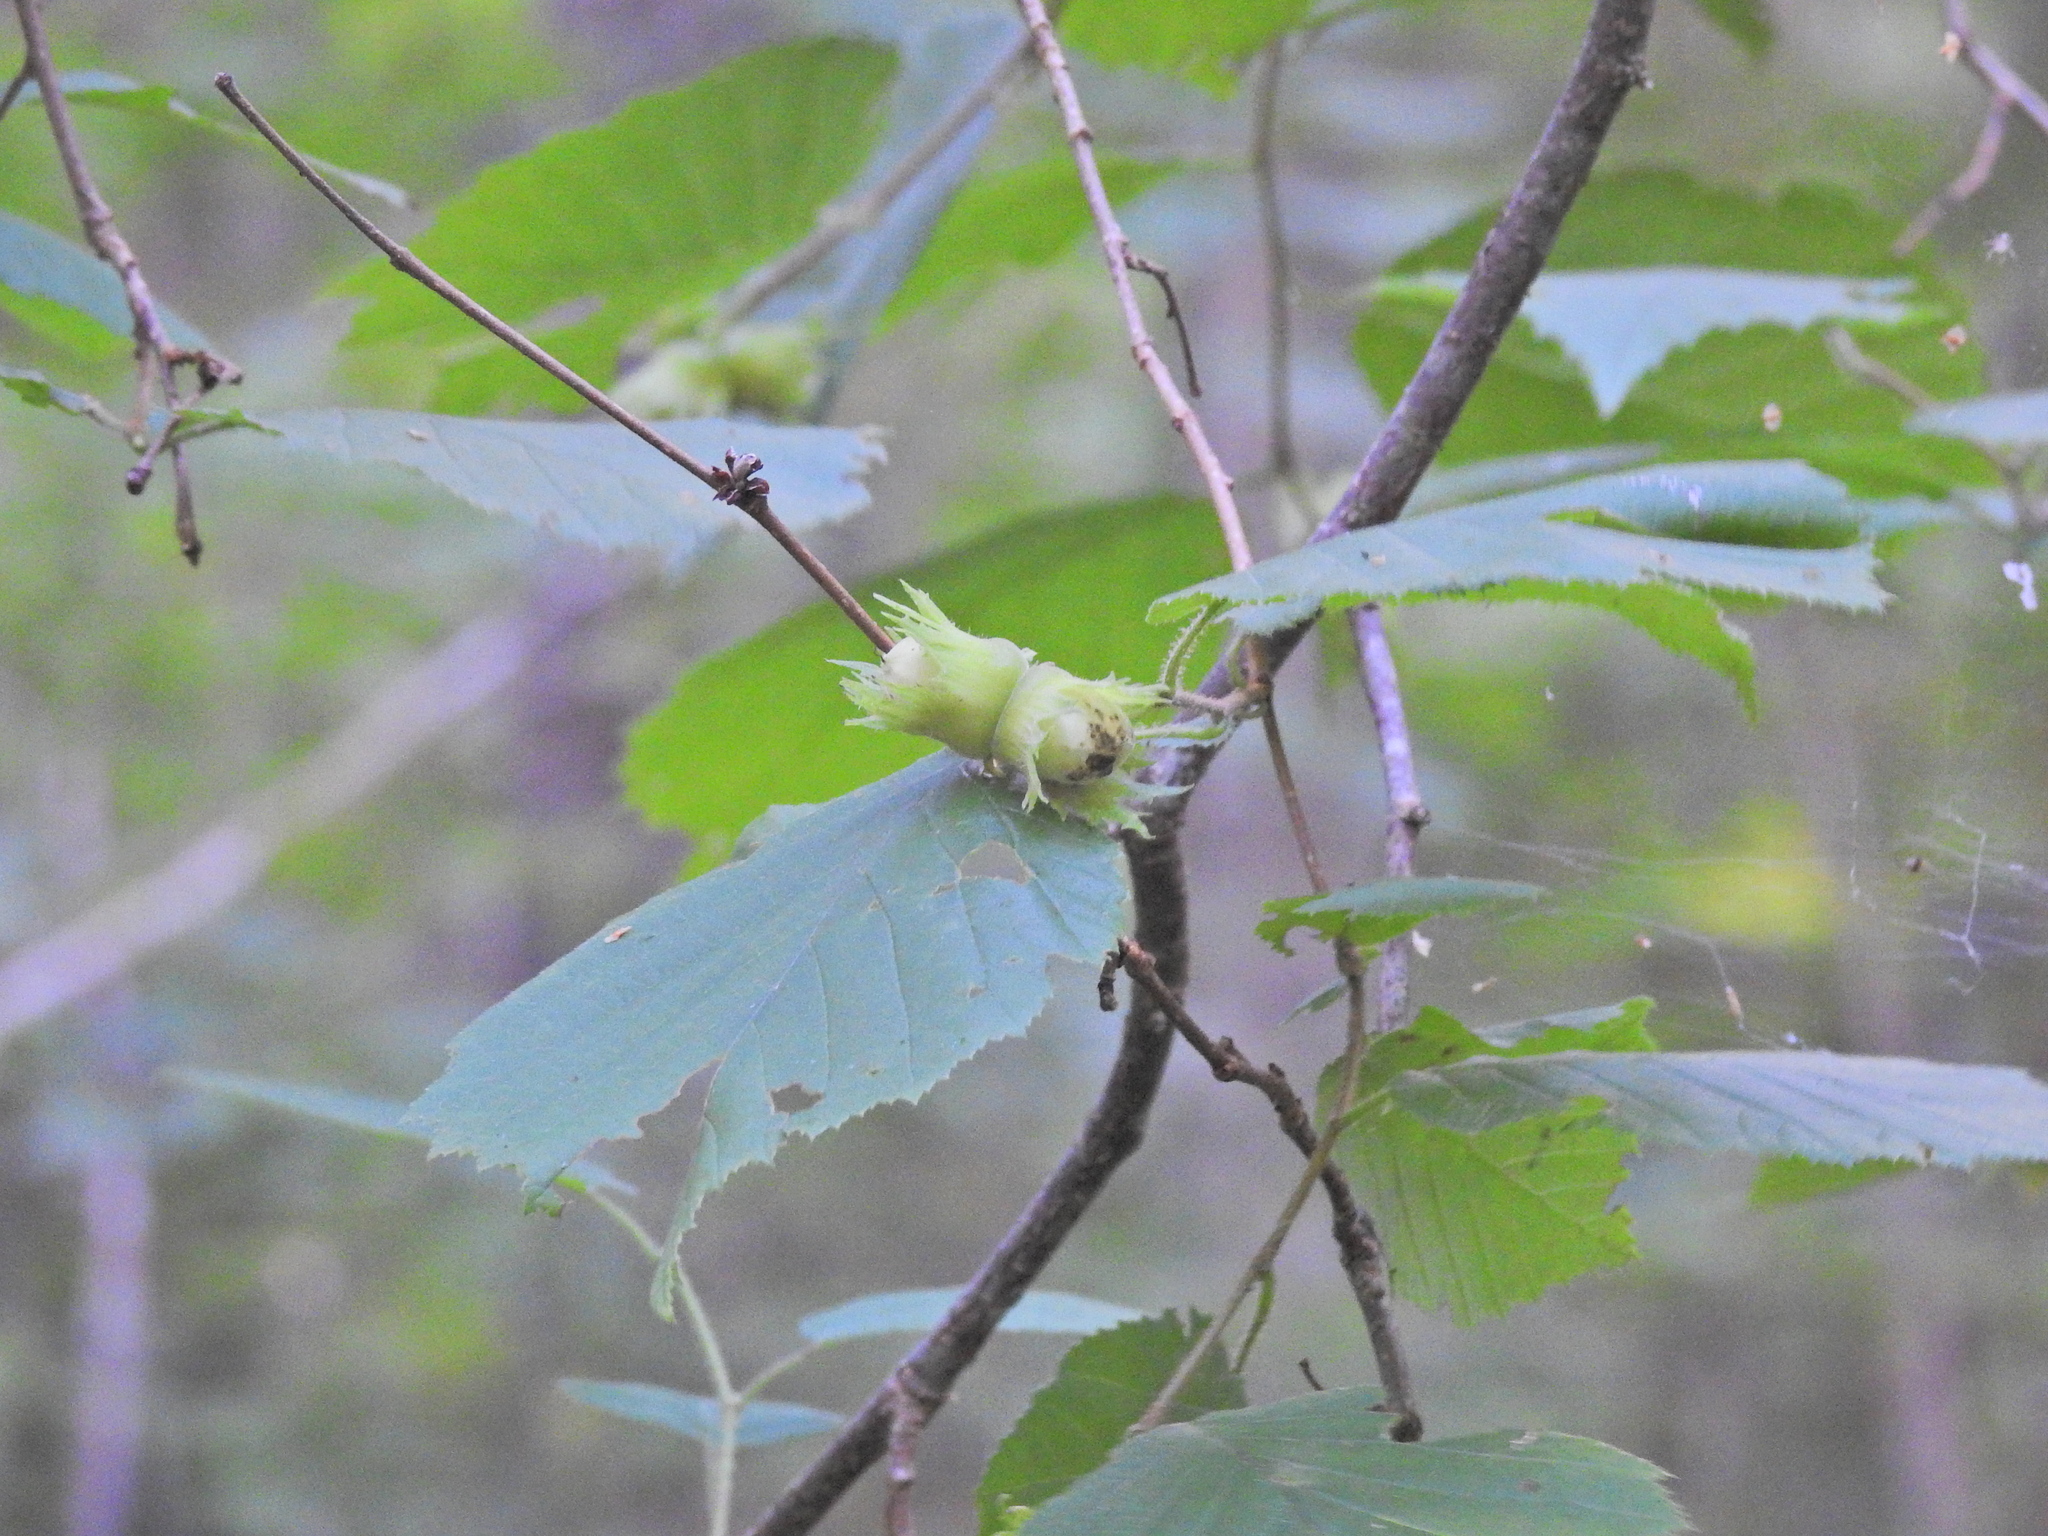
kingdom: Plantae
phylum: Tracheophyta
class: Magnoliopsida
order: Fagales
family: Betulaceae
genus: Corylus
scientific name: Corylus avellana
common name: European hazel
